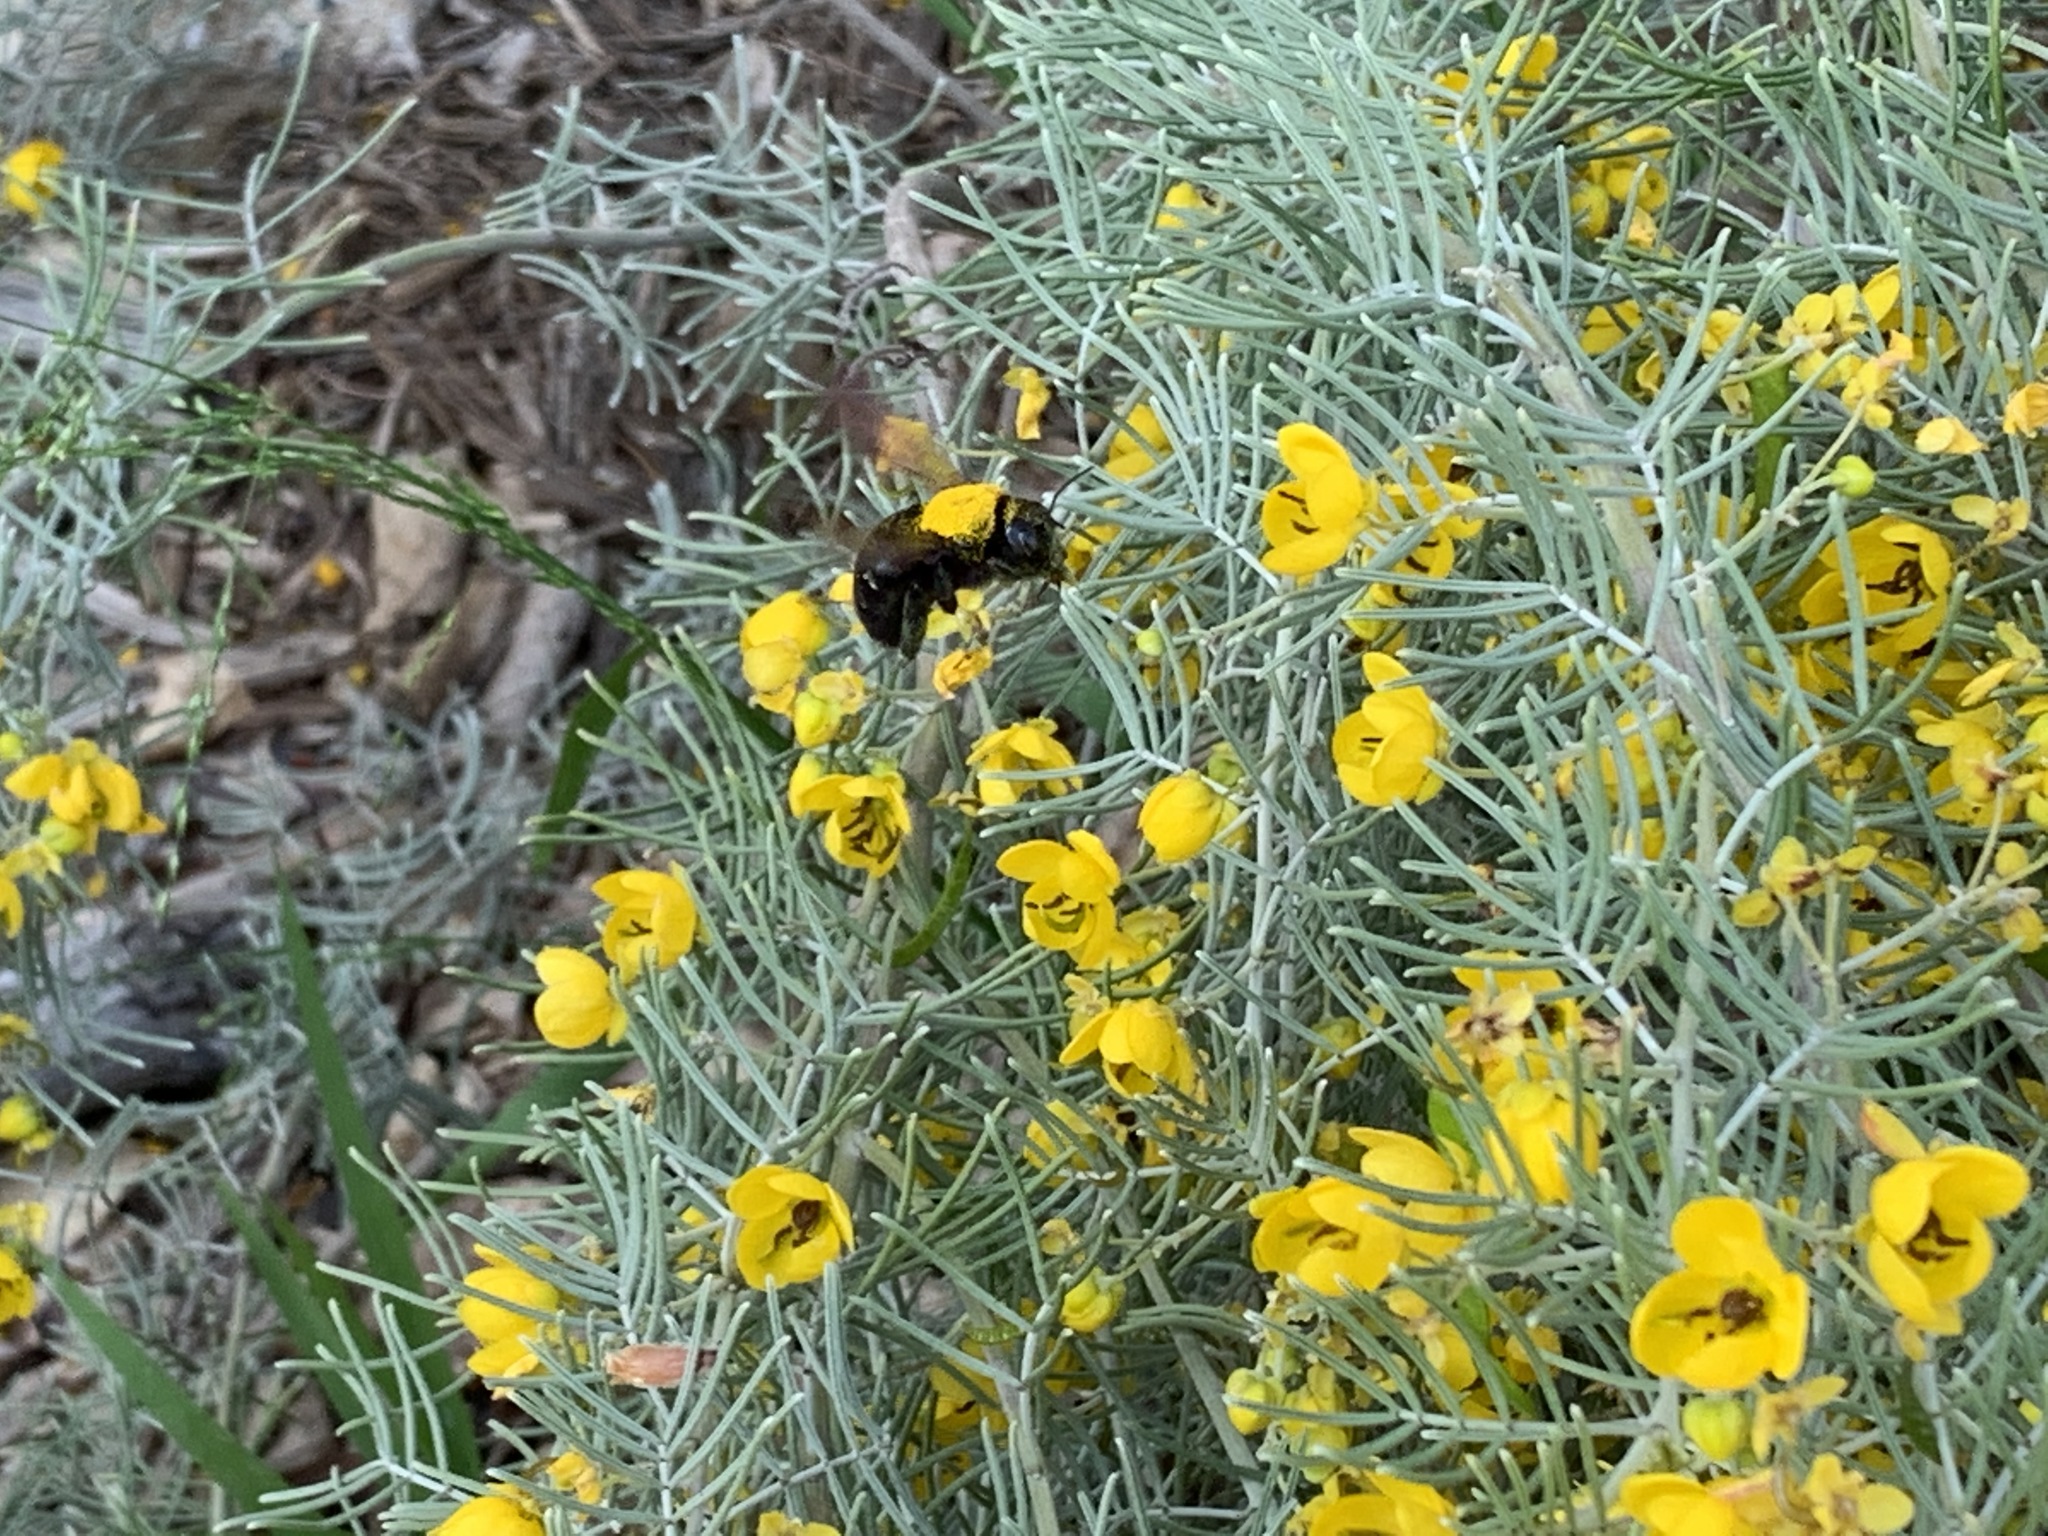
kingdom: Animalia
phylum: Arthropoda
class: Insecta
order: Hymenoptera
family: Apidae
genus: Xylocopa
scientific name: Xylocopa sonorina
